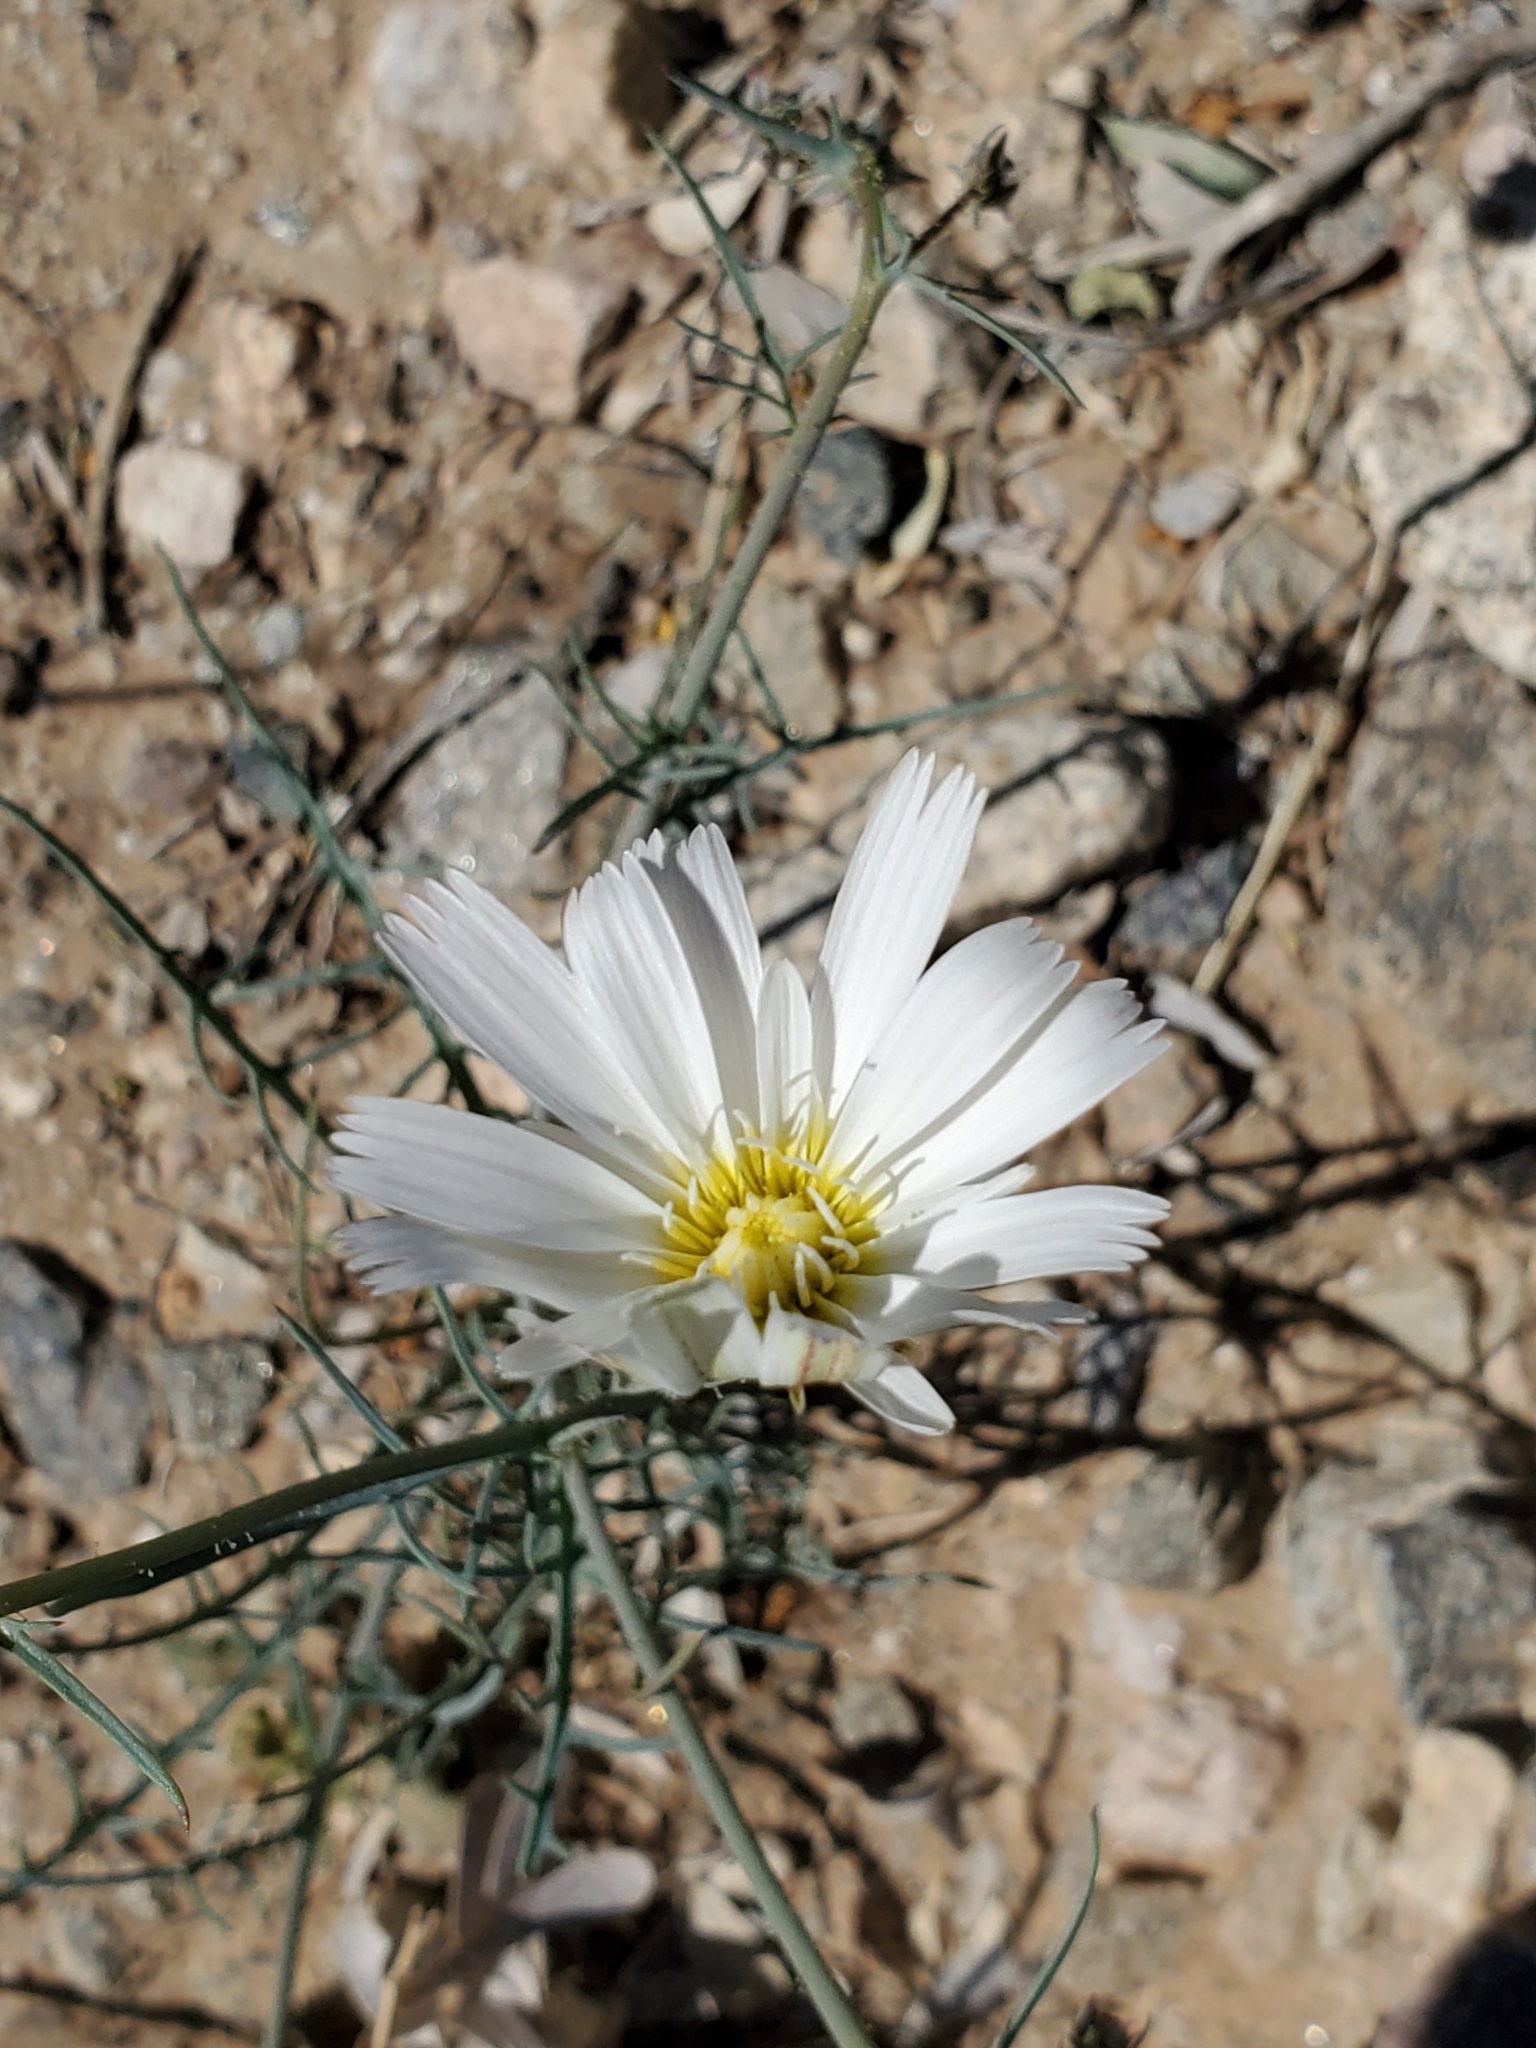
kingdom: Plantae
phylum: Tracheophyta
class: Magnoliopsida
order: Asterales
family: Asteraceae
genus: Rafinesquia
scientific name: Rafinesquia neomexicana
